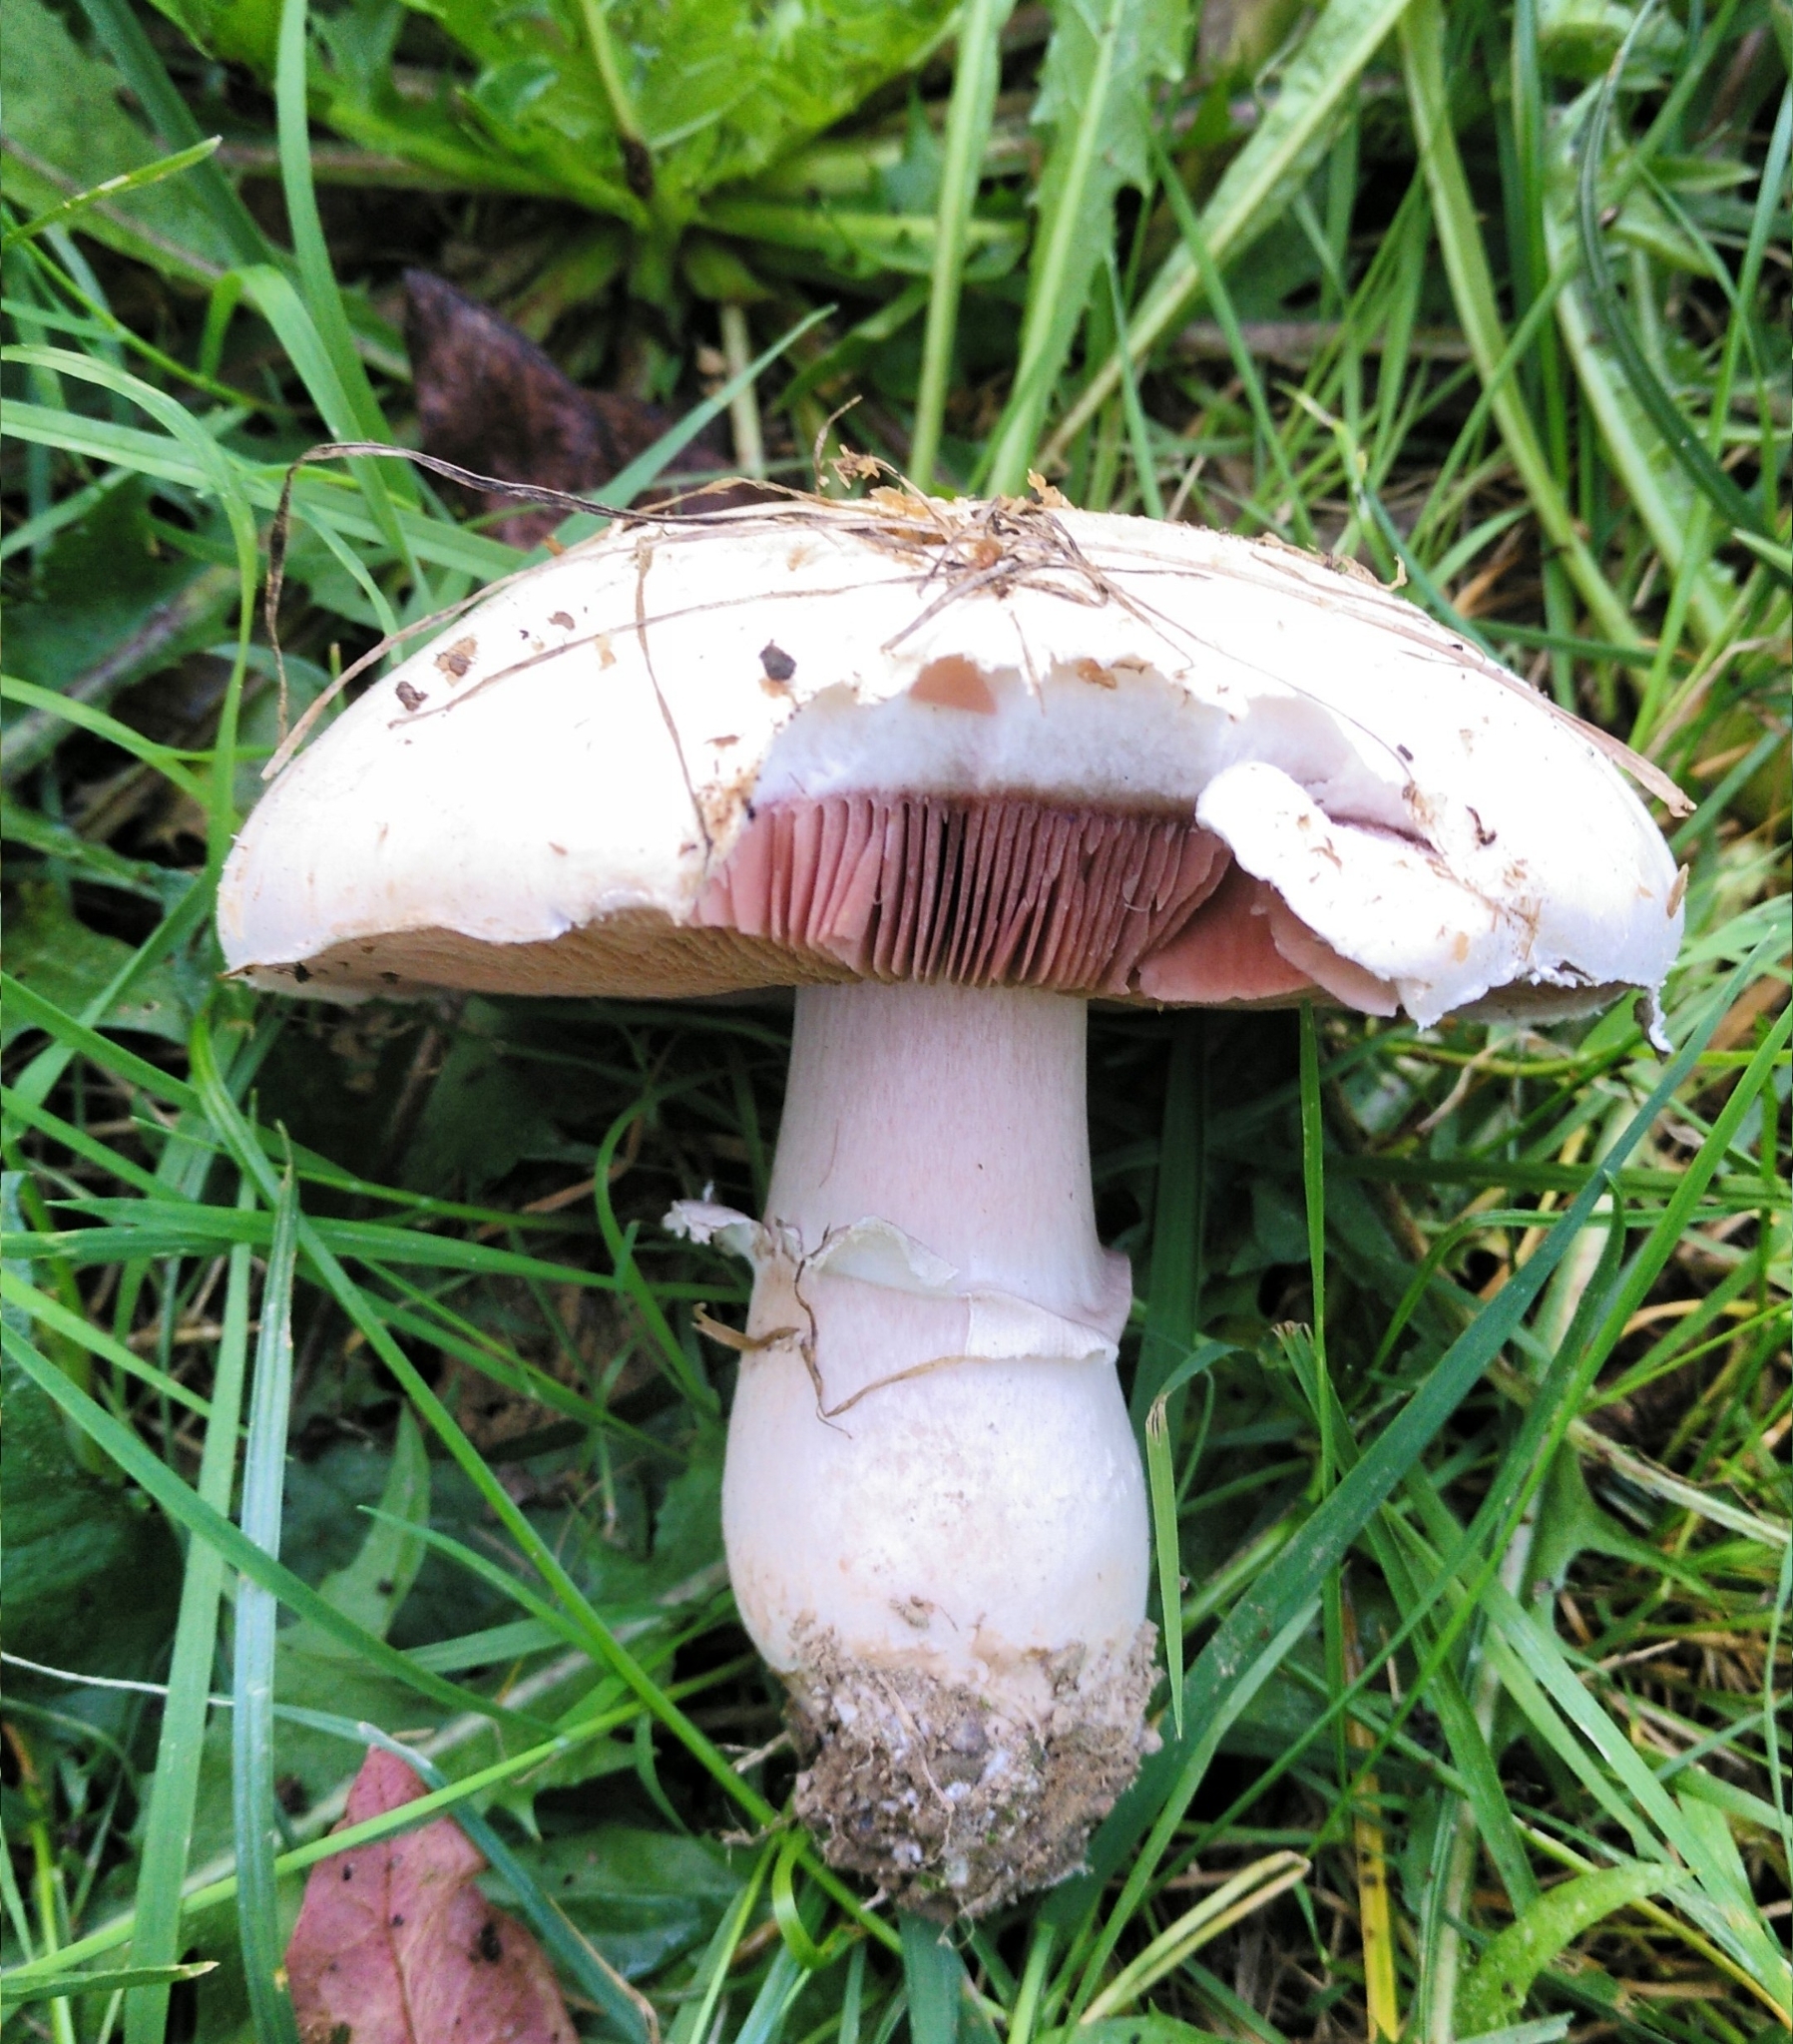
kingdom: Fungi
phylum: Basidiomycota
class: Agaricomycetes
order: Agaricales
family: Agaricaceae
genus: Agaricus
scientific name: Agaricus campestris
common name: Field mushroom
